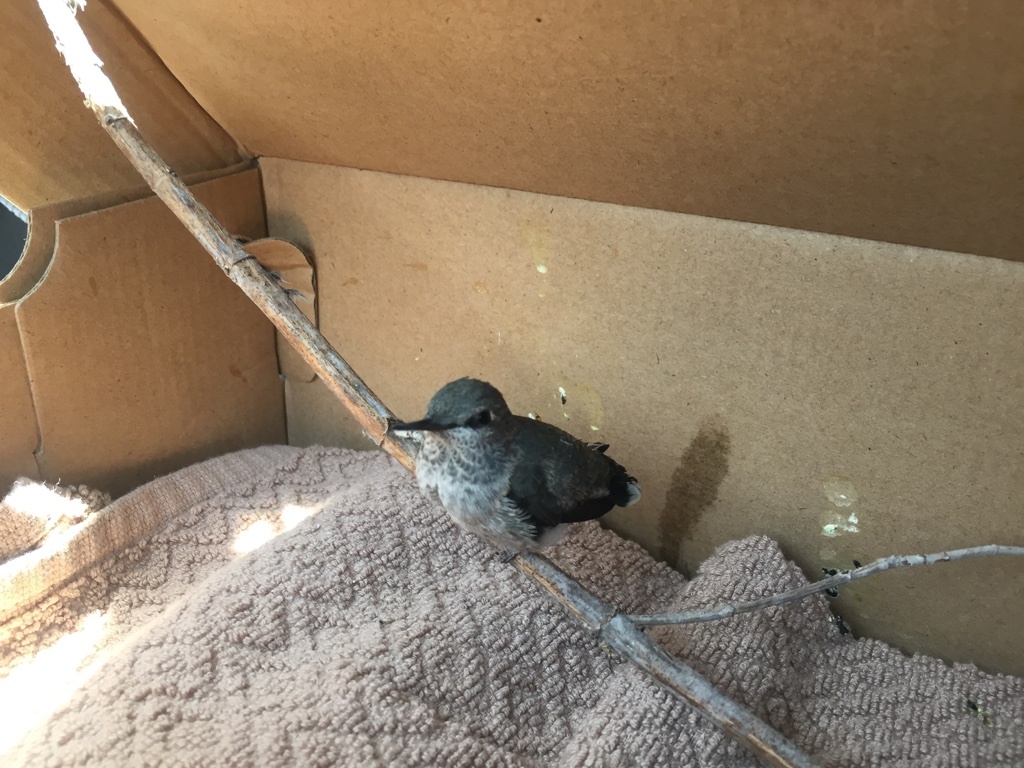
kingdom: Animalia
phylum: Chordata
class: Aves
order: Apodiformes
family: Trochilidae
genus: Calypte
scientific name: Calypte anna
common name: Anna's hummingbird
